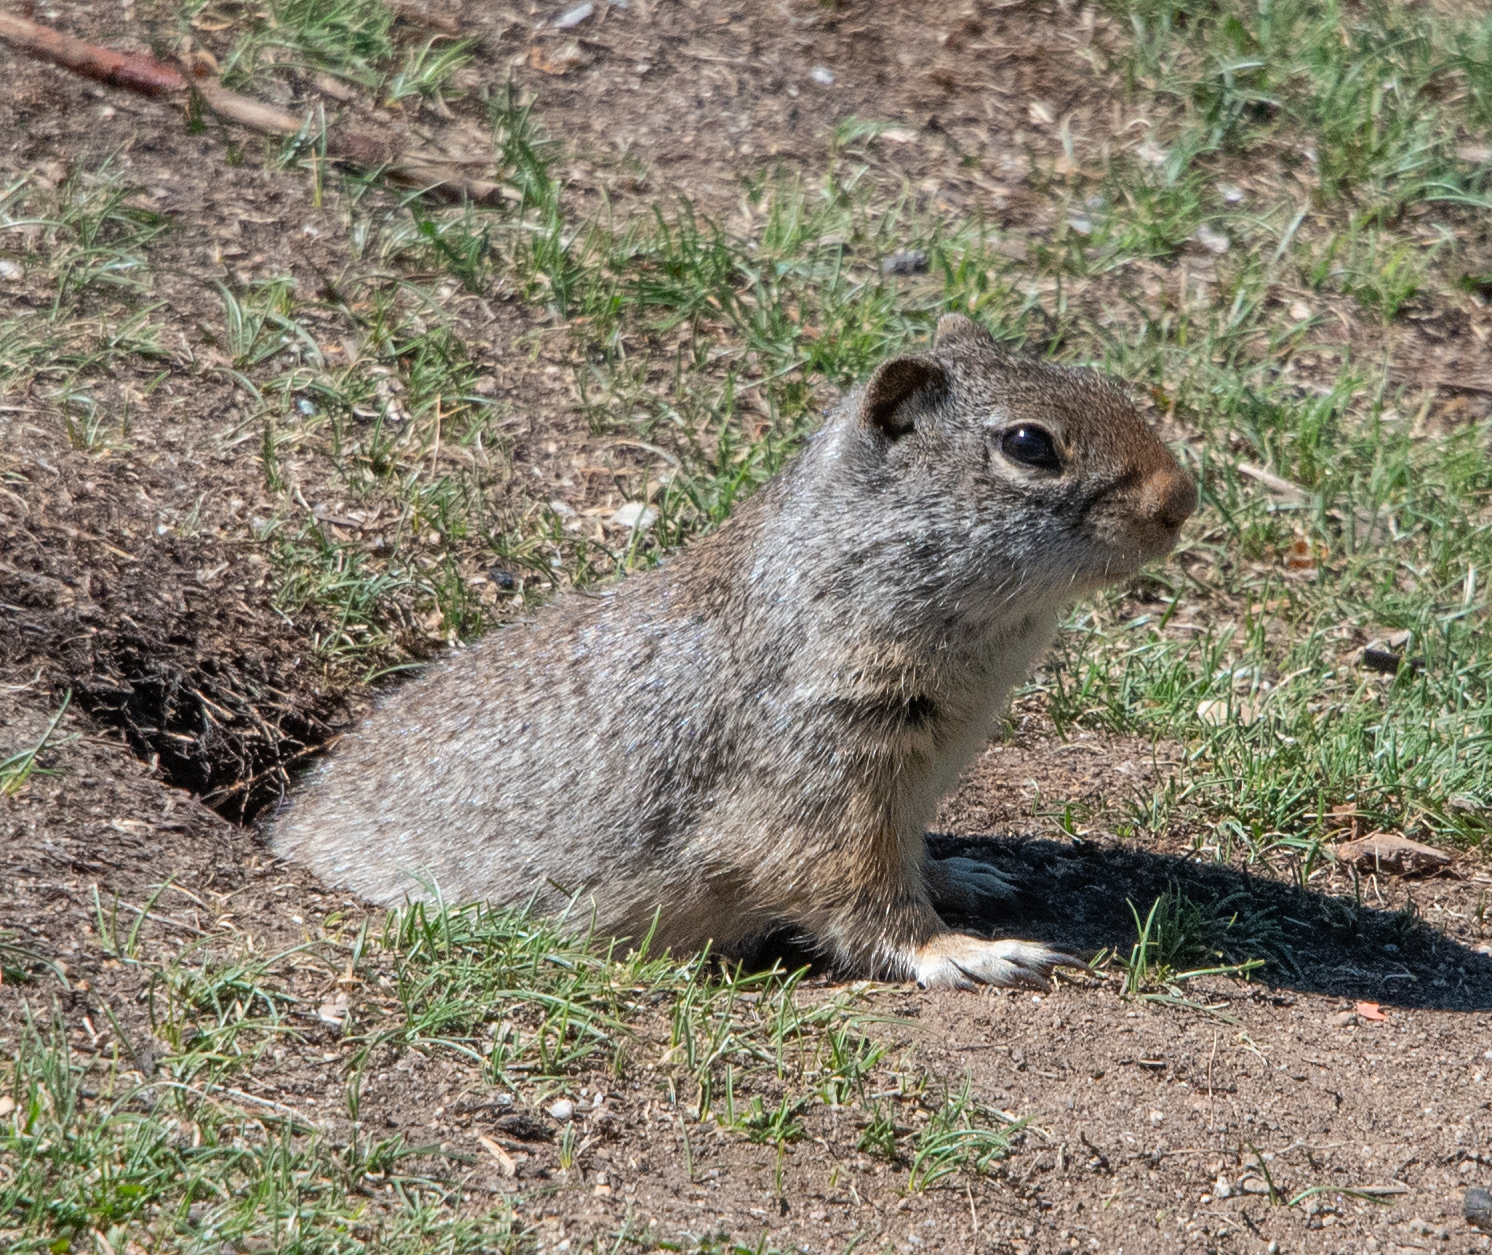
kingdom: Animalia
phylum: Chordata
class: Mammalia
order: Rodentia
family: Sciuridae
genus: Urocitellus
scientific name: Urocitellus armatus
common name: Uinta ground squirrel
